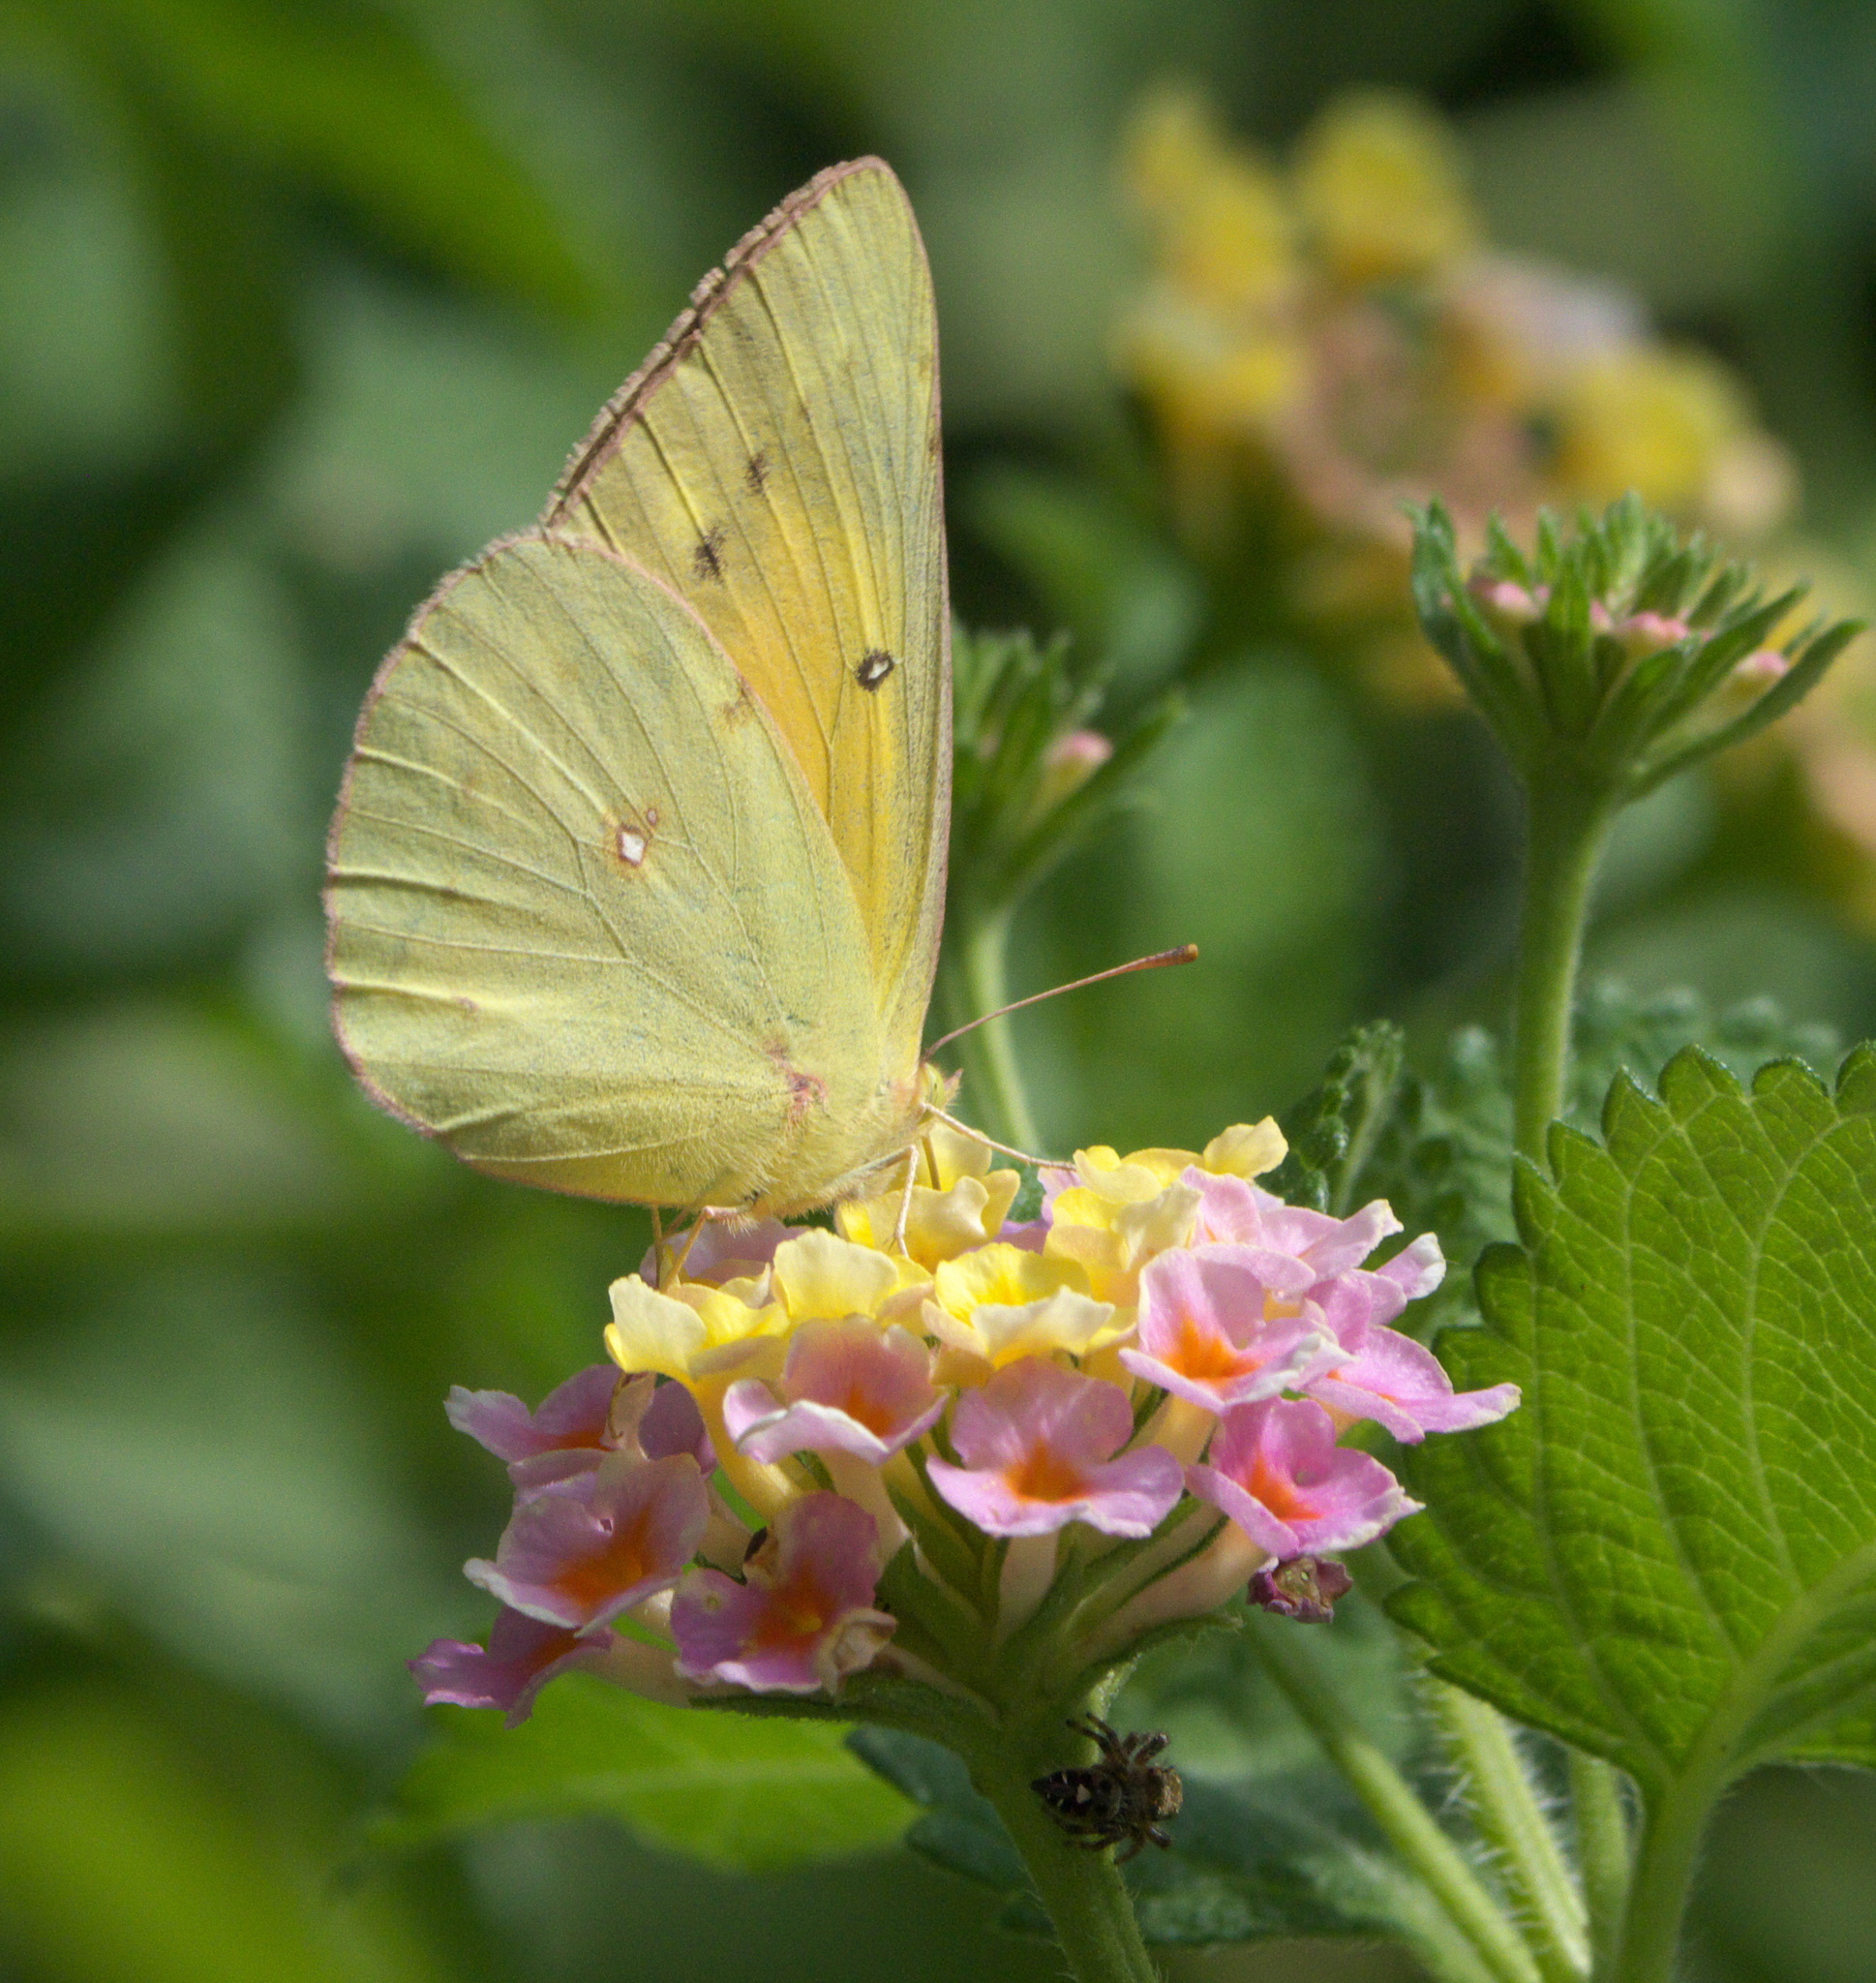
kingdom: Animalia
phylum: Arthropoda
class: Insecta
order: Lepidoptera
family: Pieridae
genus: Colias
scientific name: Colias eurytheme
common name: Alfalfa butterfly
